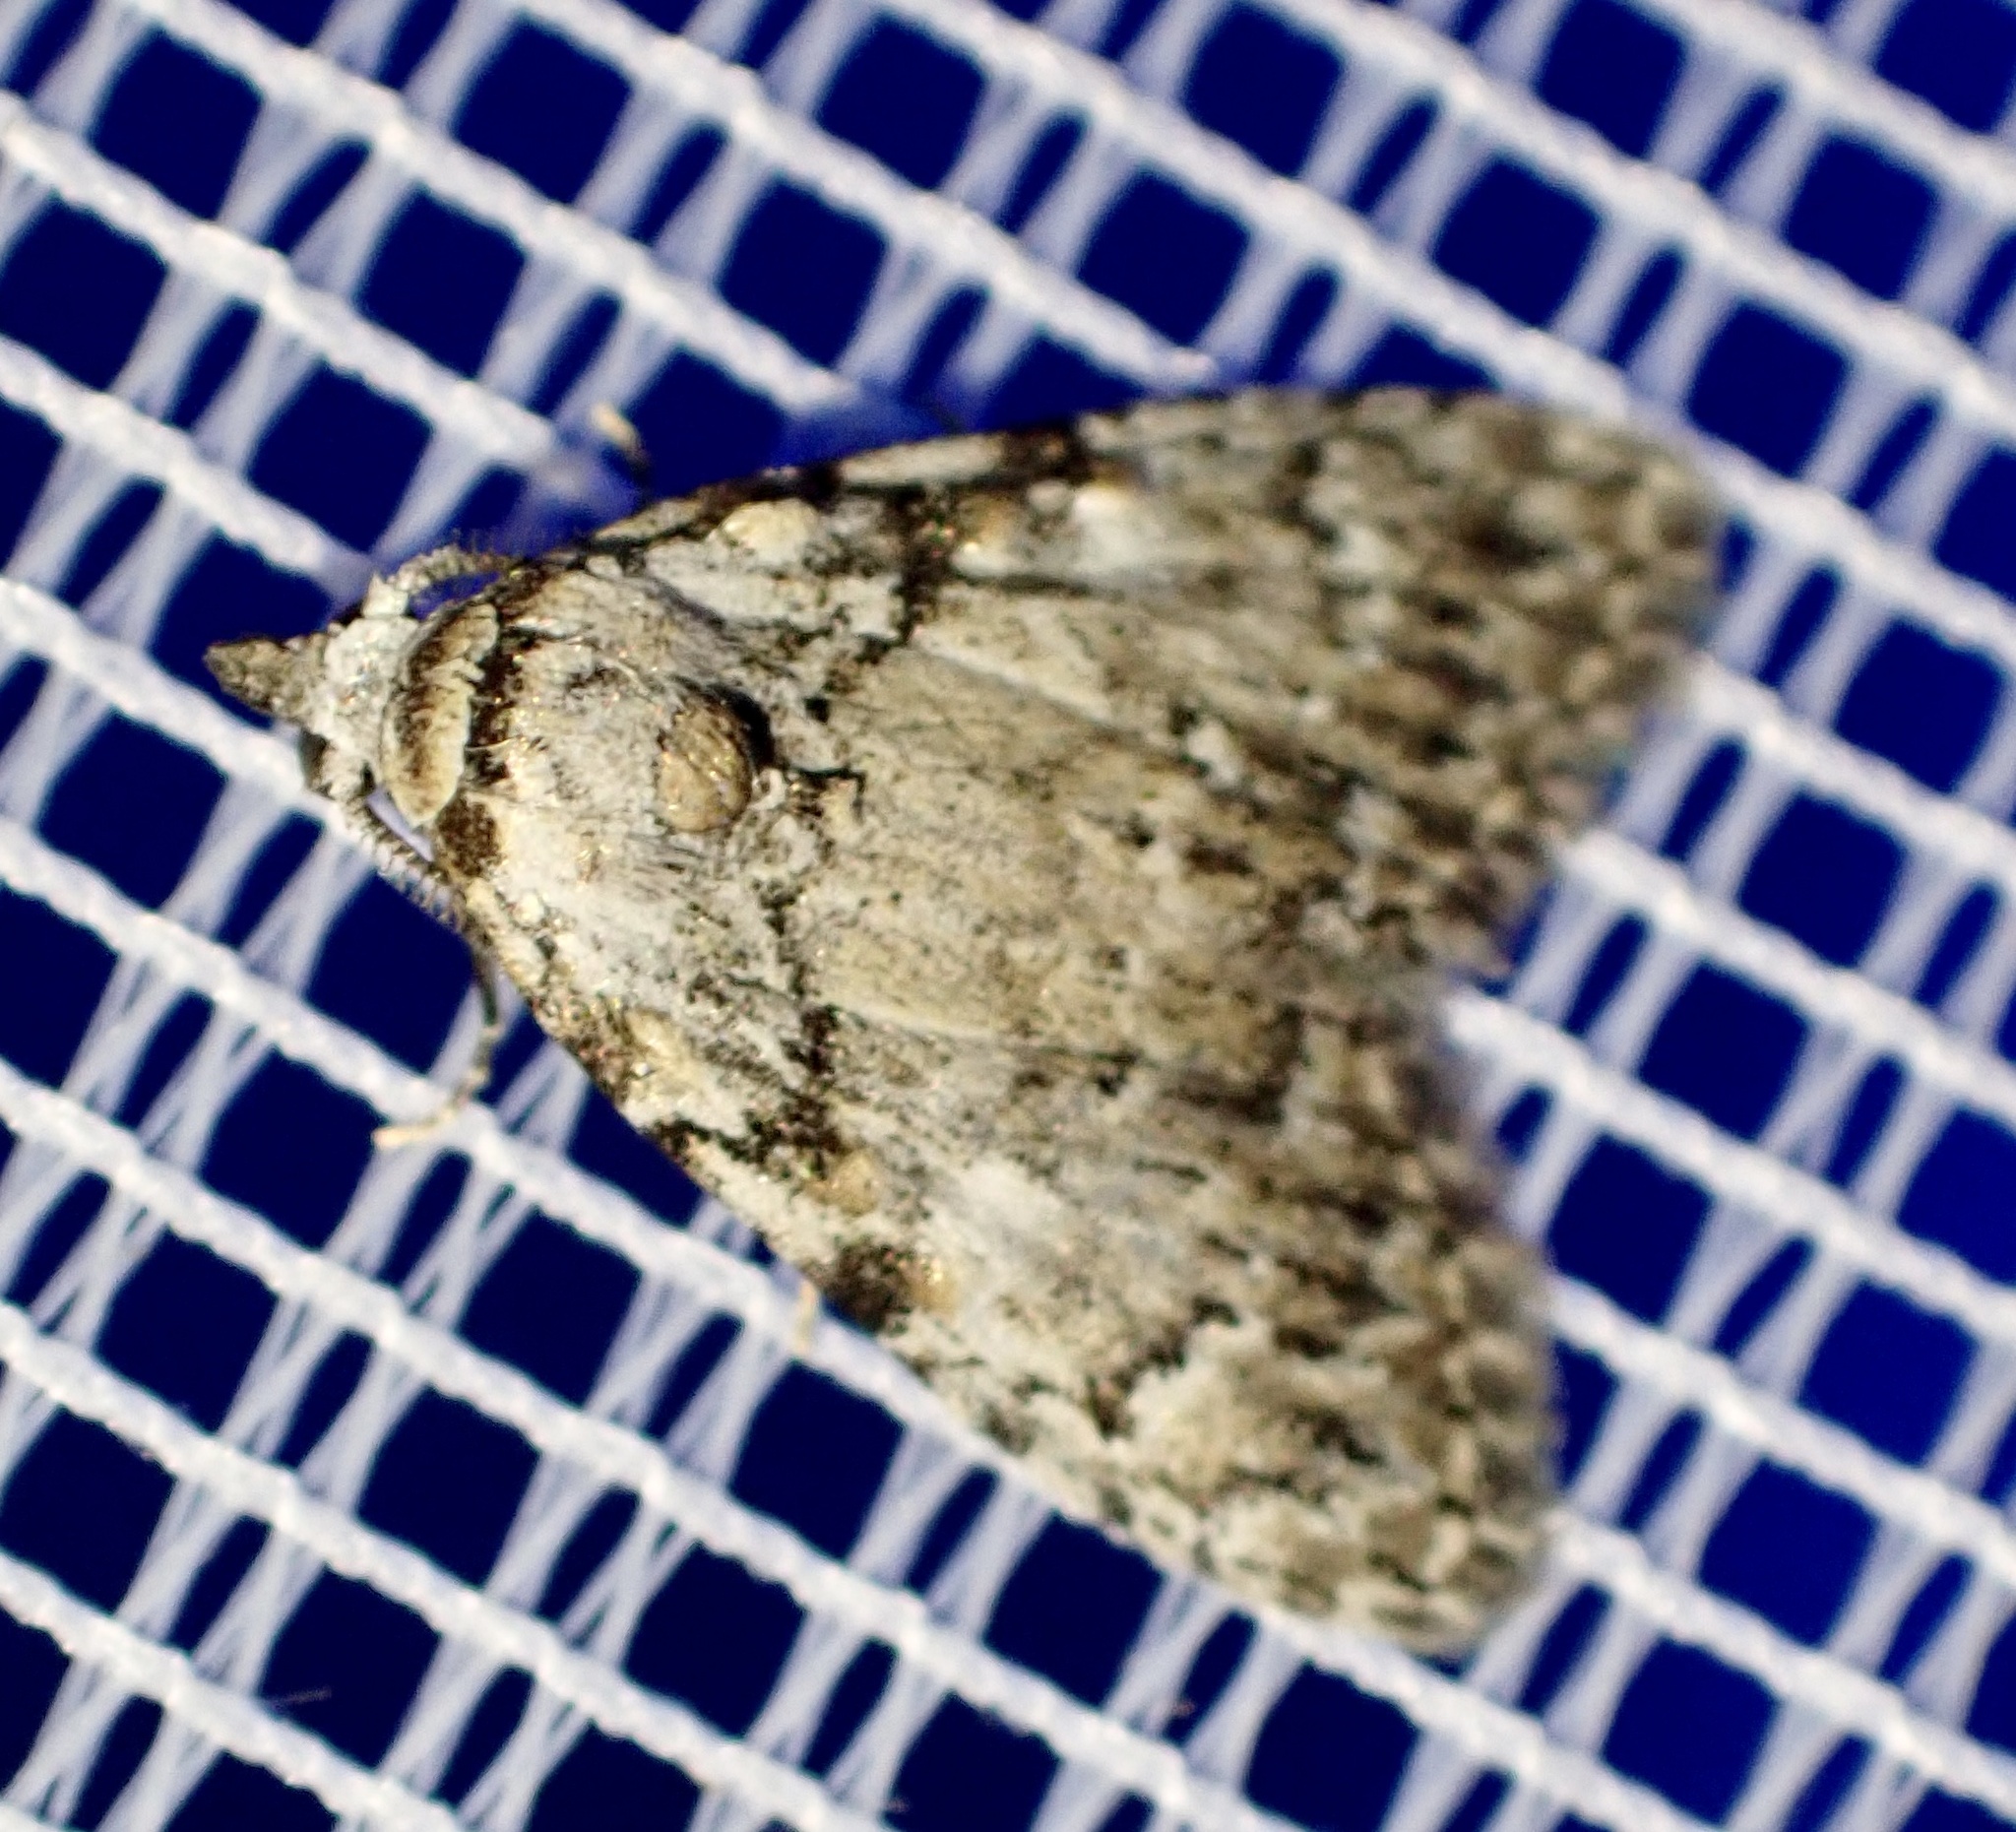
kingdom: Animalia
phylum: Arthropoda
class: Insecta
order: Lepidoptera
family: Nolidae
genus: Meganola
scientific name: Meganola strigula
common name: Small black arches
